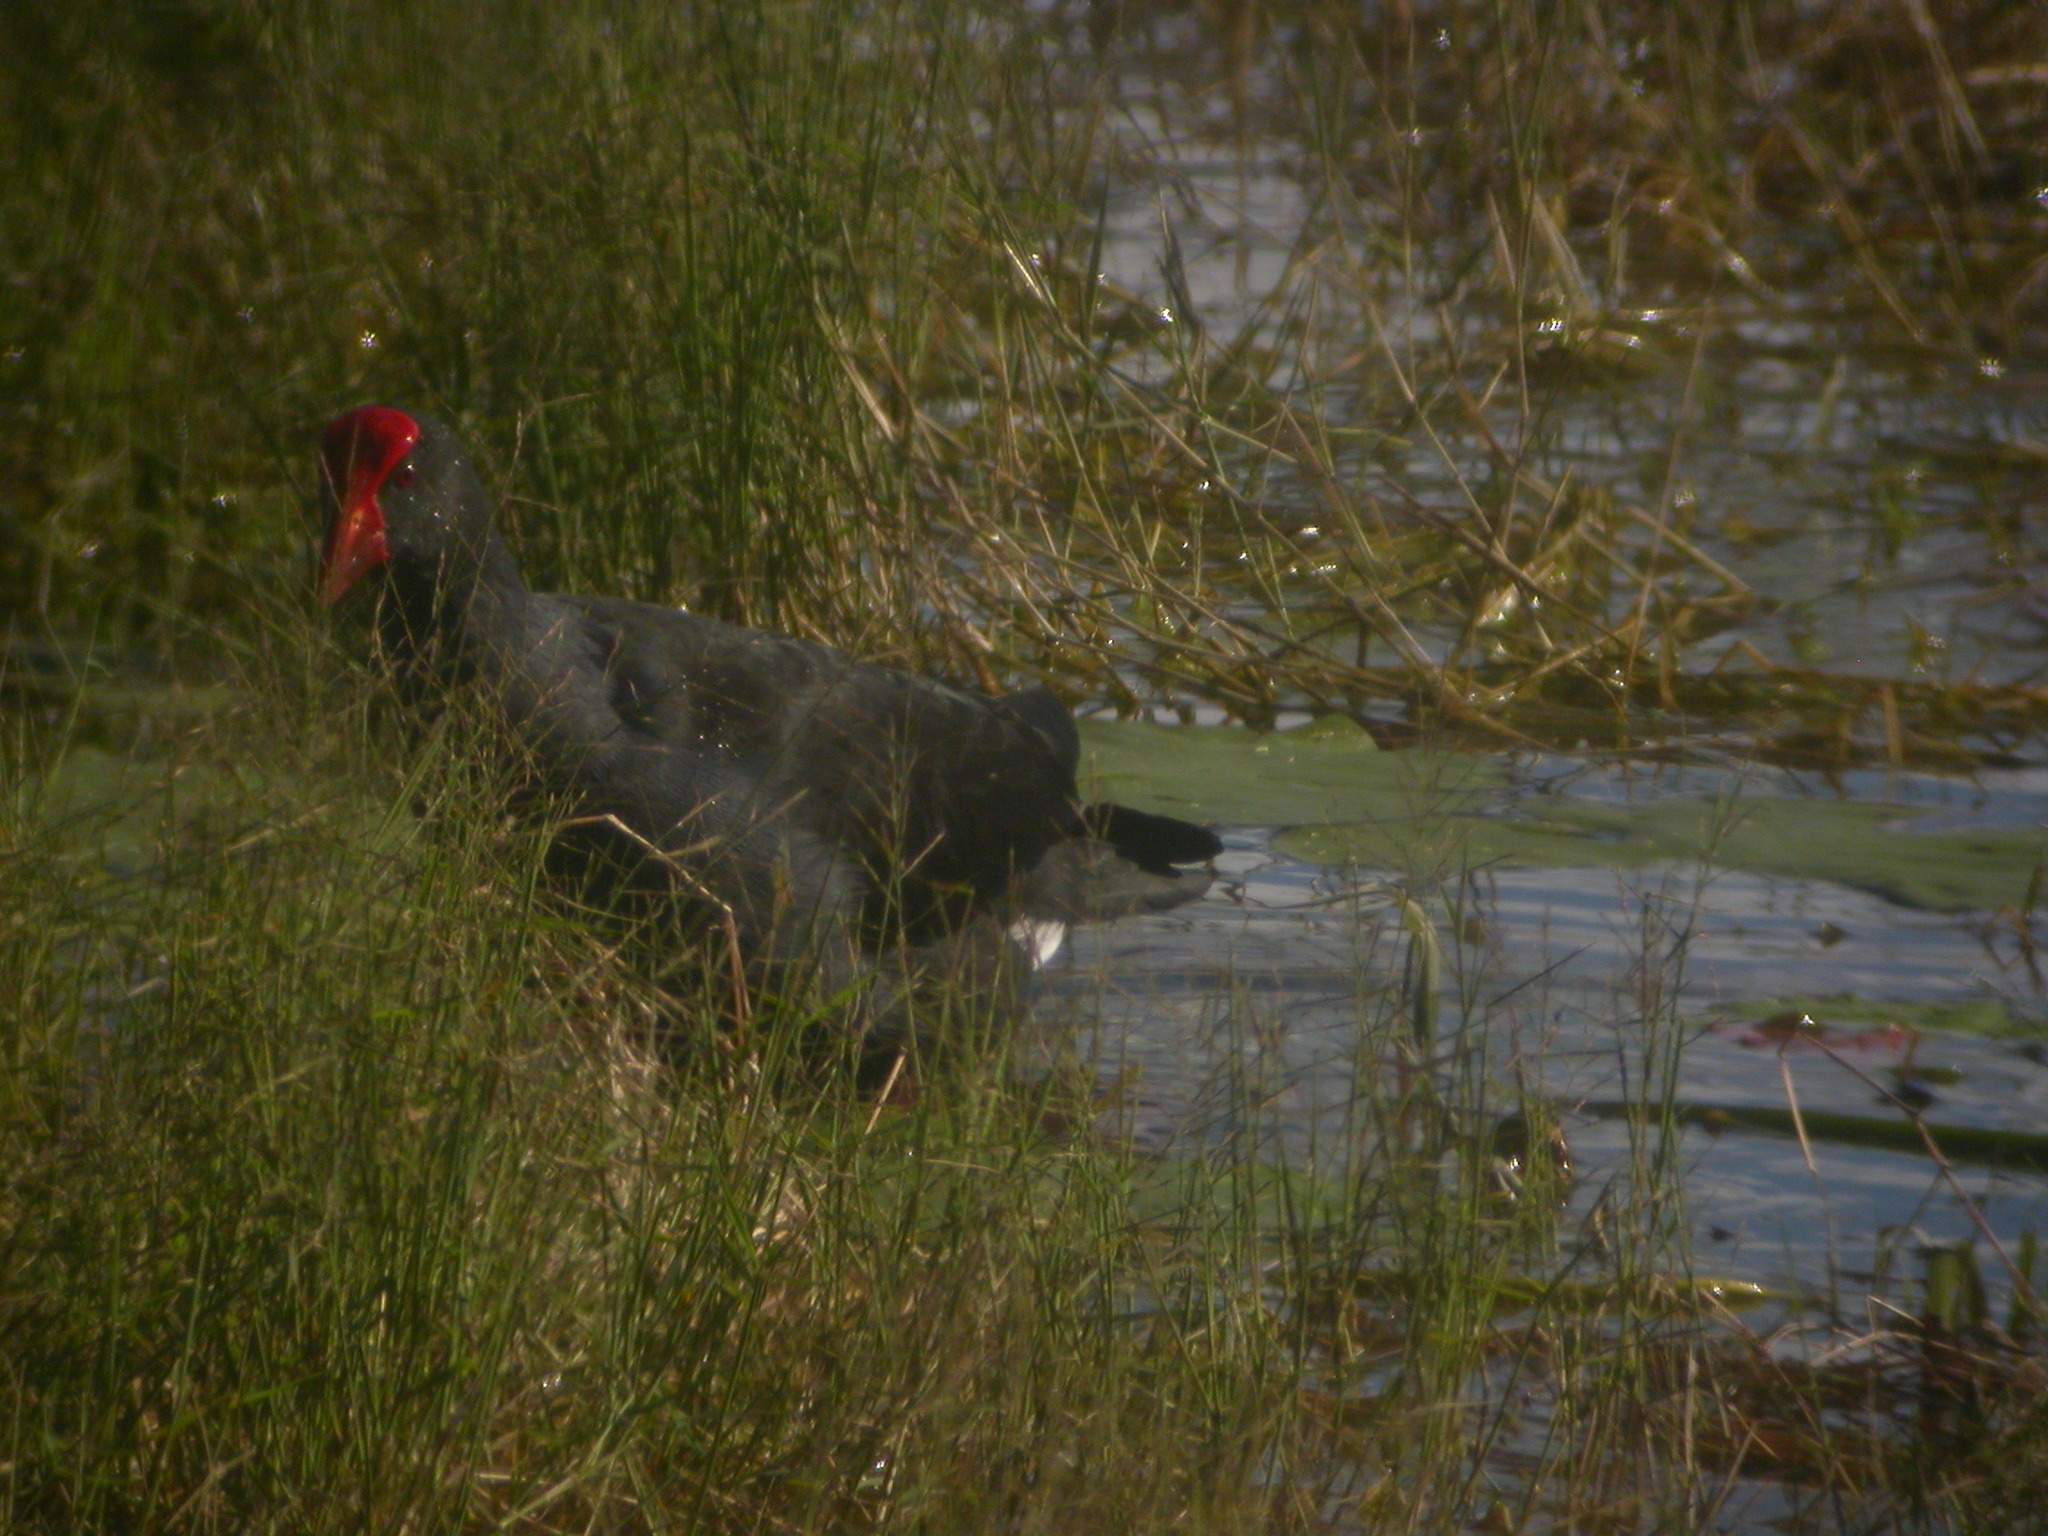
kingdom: Animalia
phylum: Chordata
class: Aves
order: Gruiformes
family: Rallidae
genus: Porphyrio
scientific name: Porphyrio melanotus
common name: Australasian swamphen
